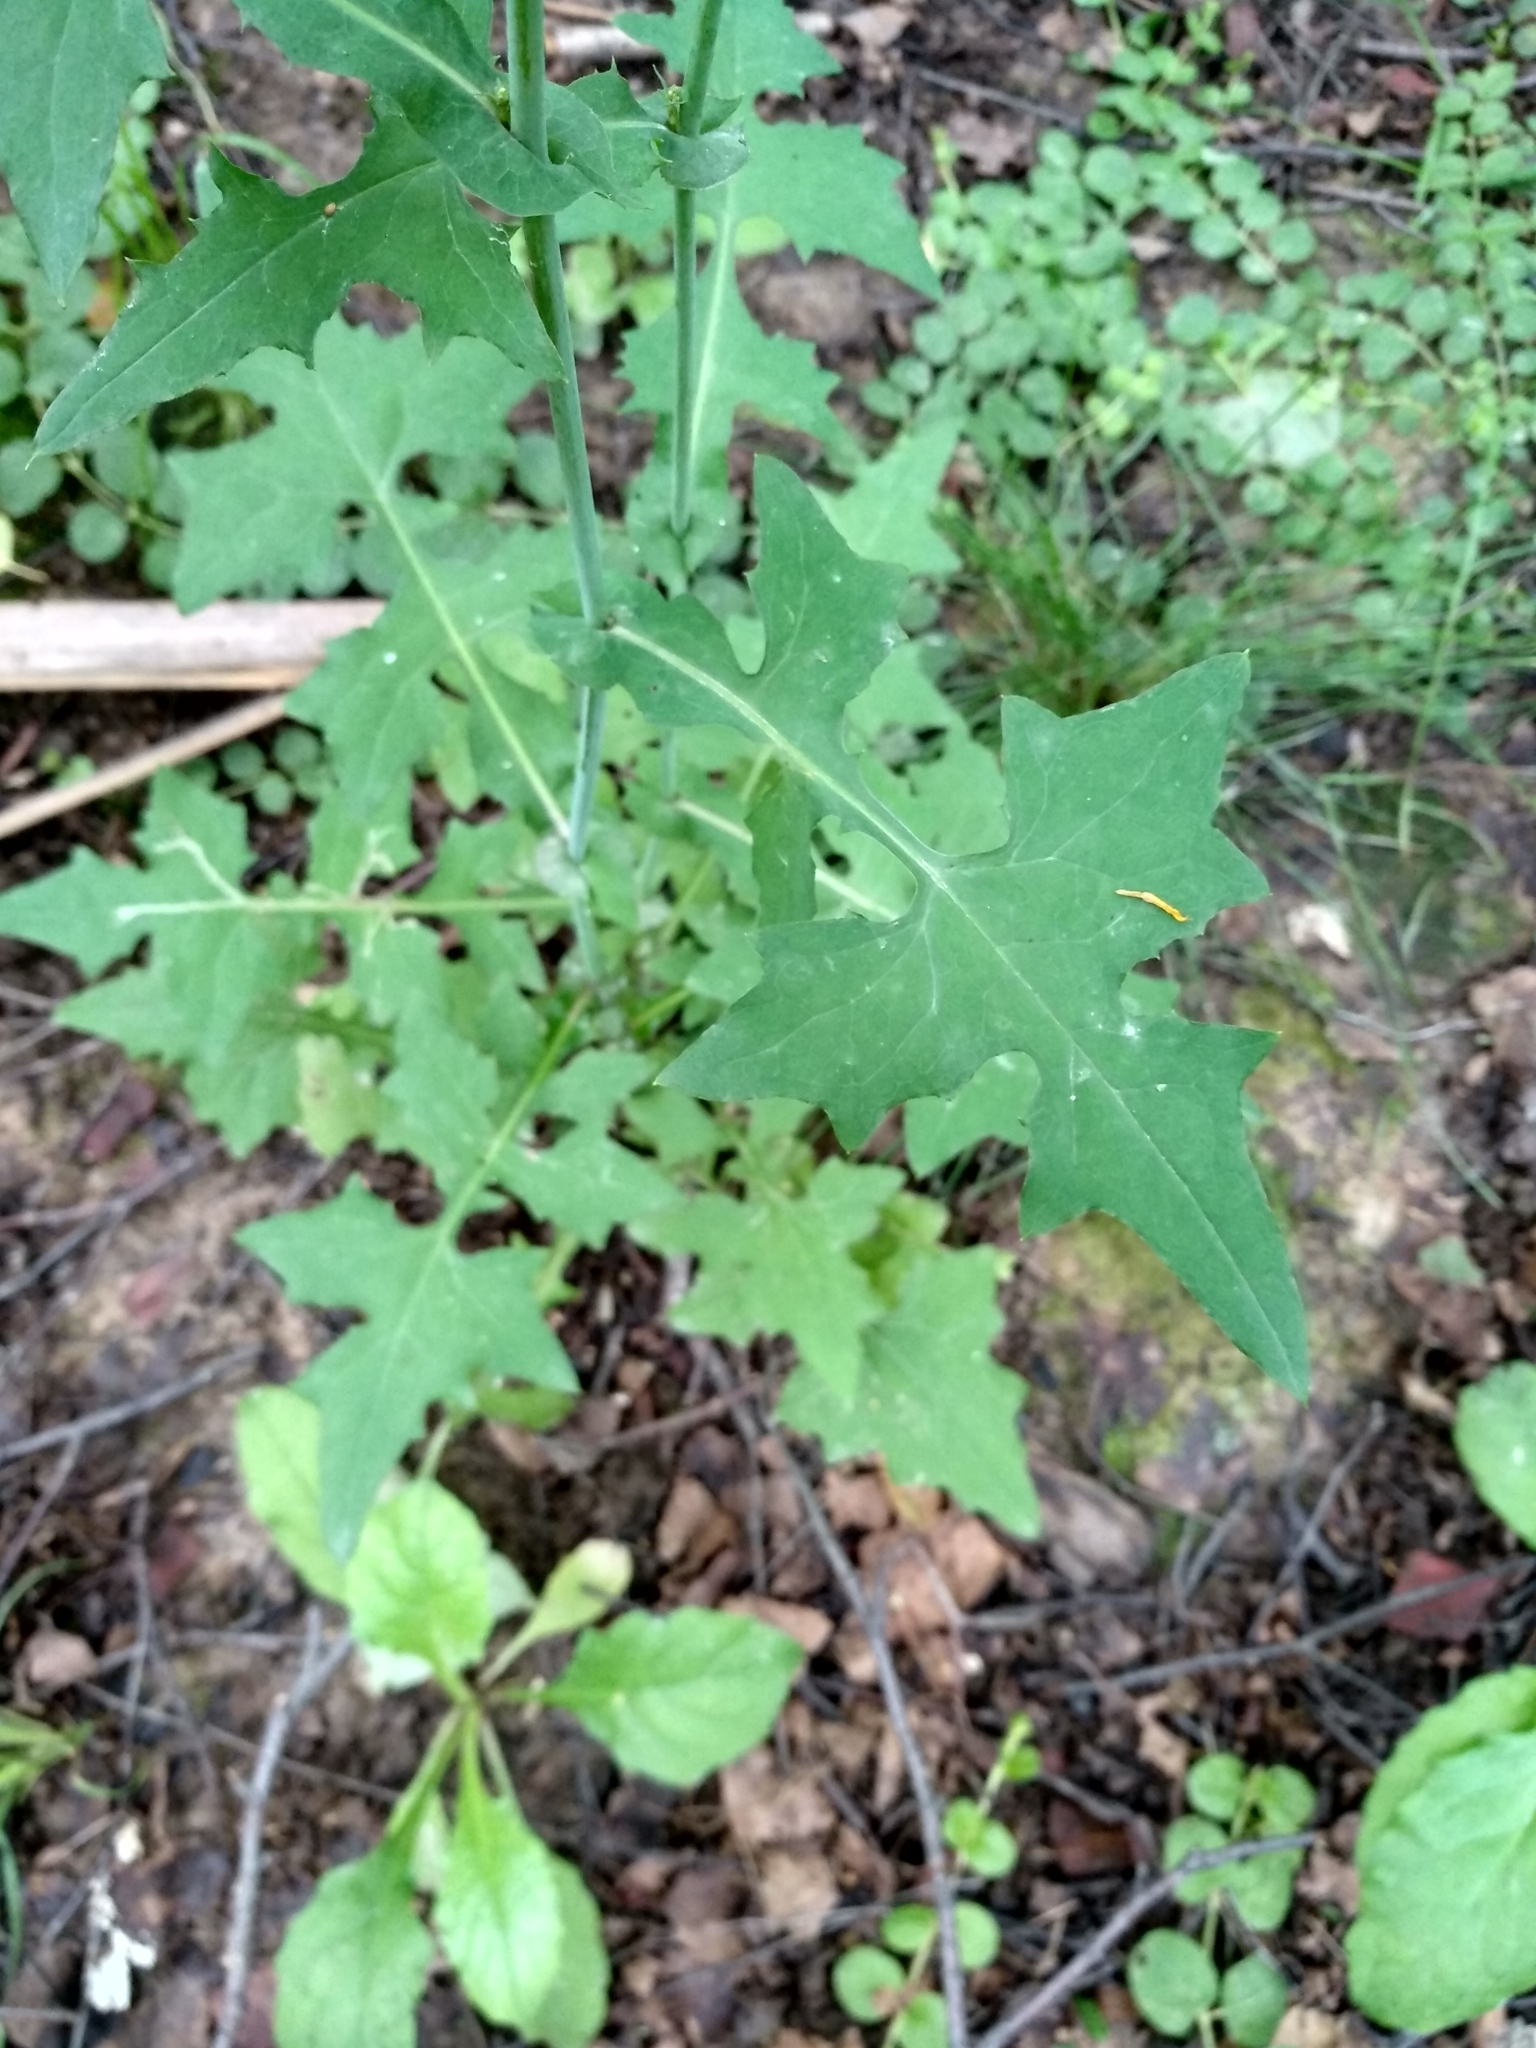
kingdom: Plantae
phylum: Tracheophyta
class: Magnoliopsida
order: Asterales
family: Asteraceae
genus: Mycelis
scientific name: Mycelis muralis
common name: Wall lettuce
